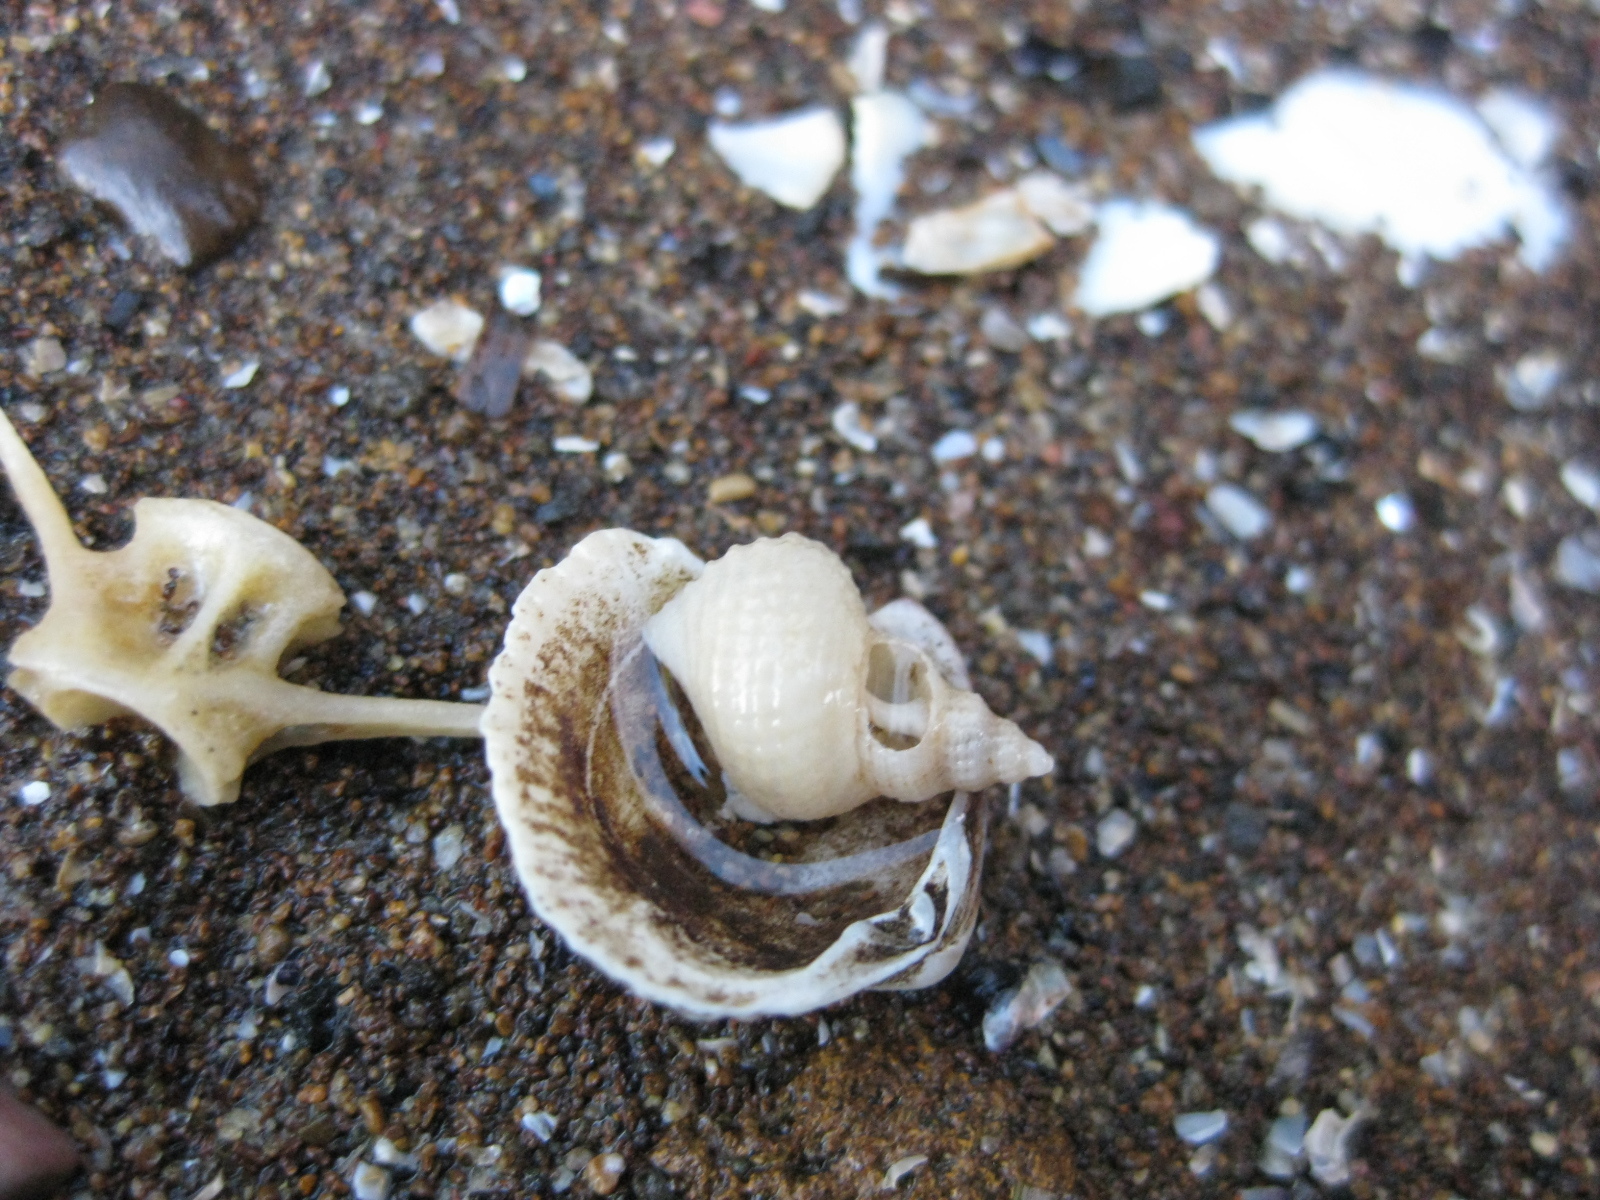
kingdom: Animalia
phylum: Mollusca
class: Gastropoda
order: Littorinimorpha
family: Capulidae
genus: Trichosirius
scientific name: Trichosirius inornatus
